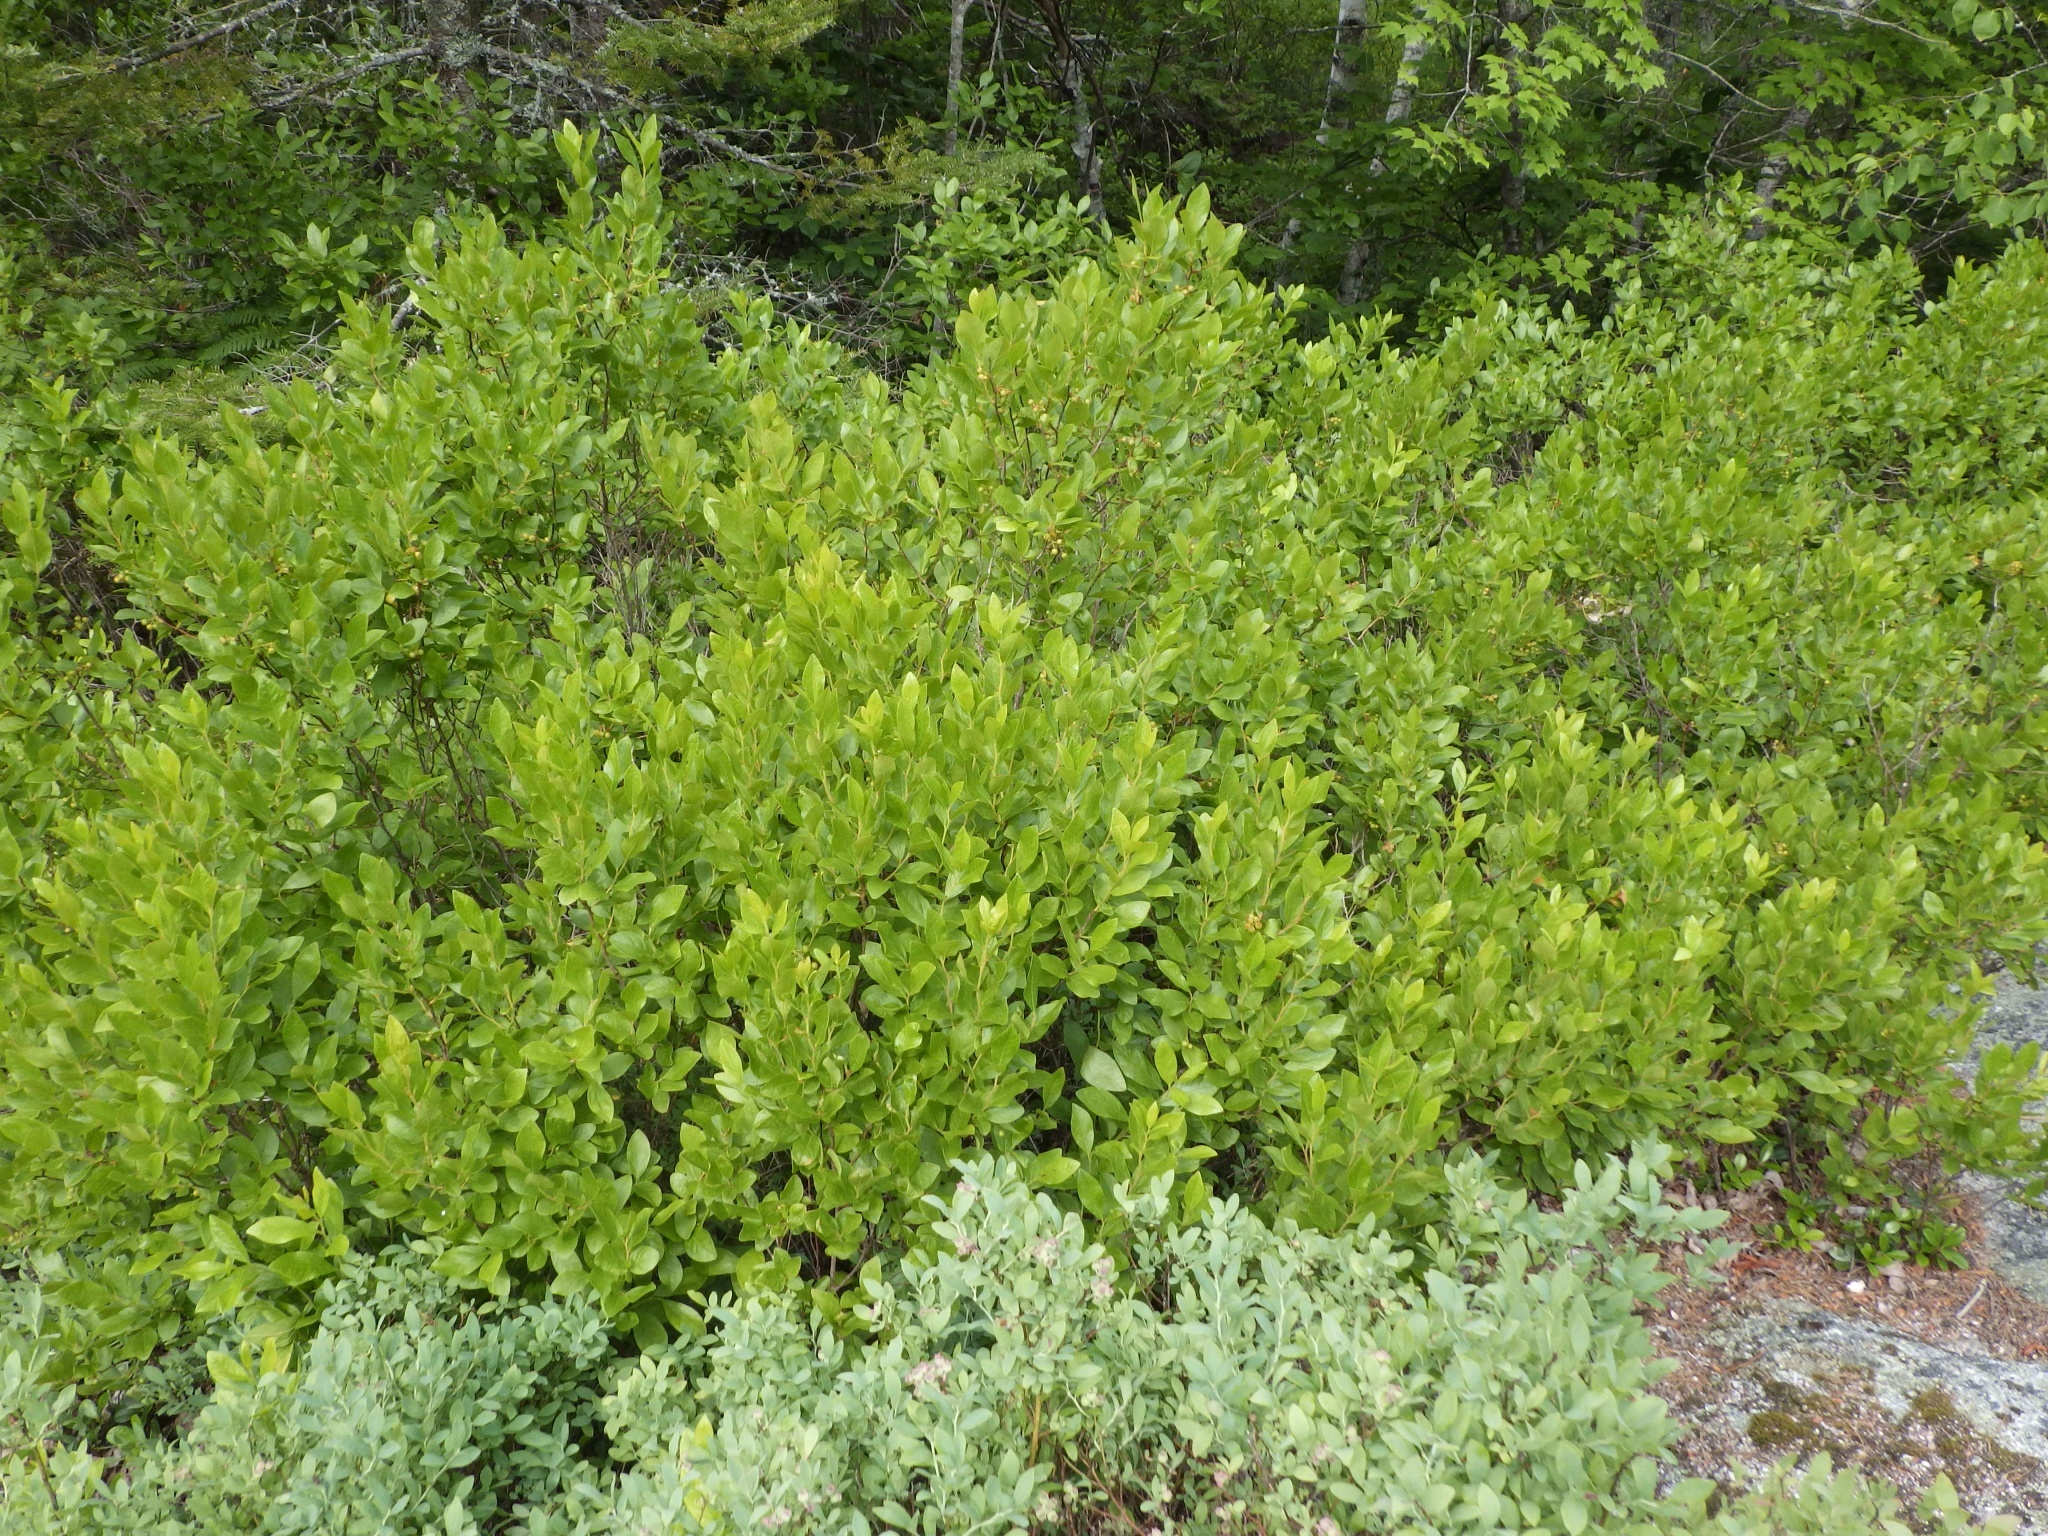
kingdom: Plantae
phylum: Tracheophyta
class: Magnoliopsida
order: Ericales
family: Ericaceae
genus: Gaylussacia
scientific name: Gaylussacia baccata
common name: Black huckleberry
